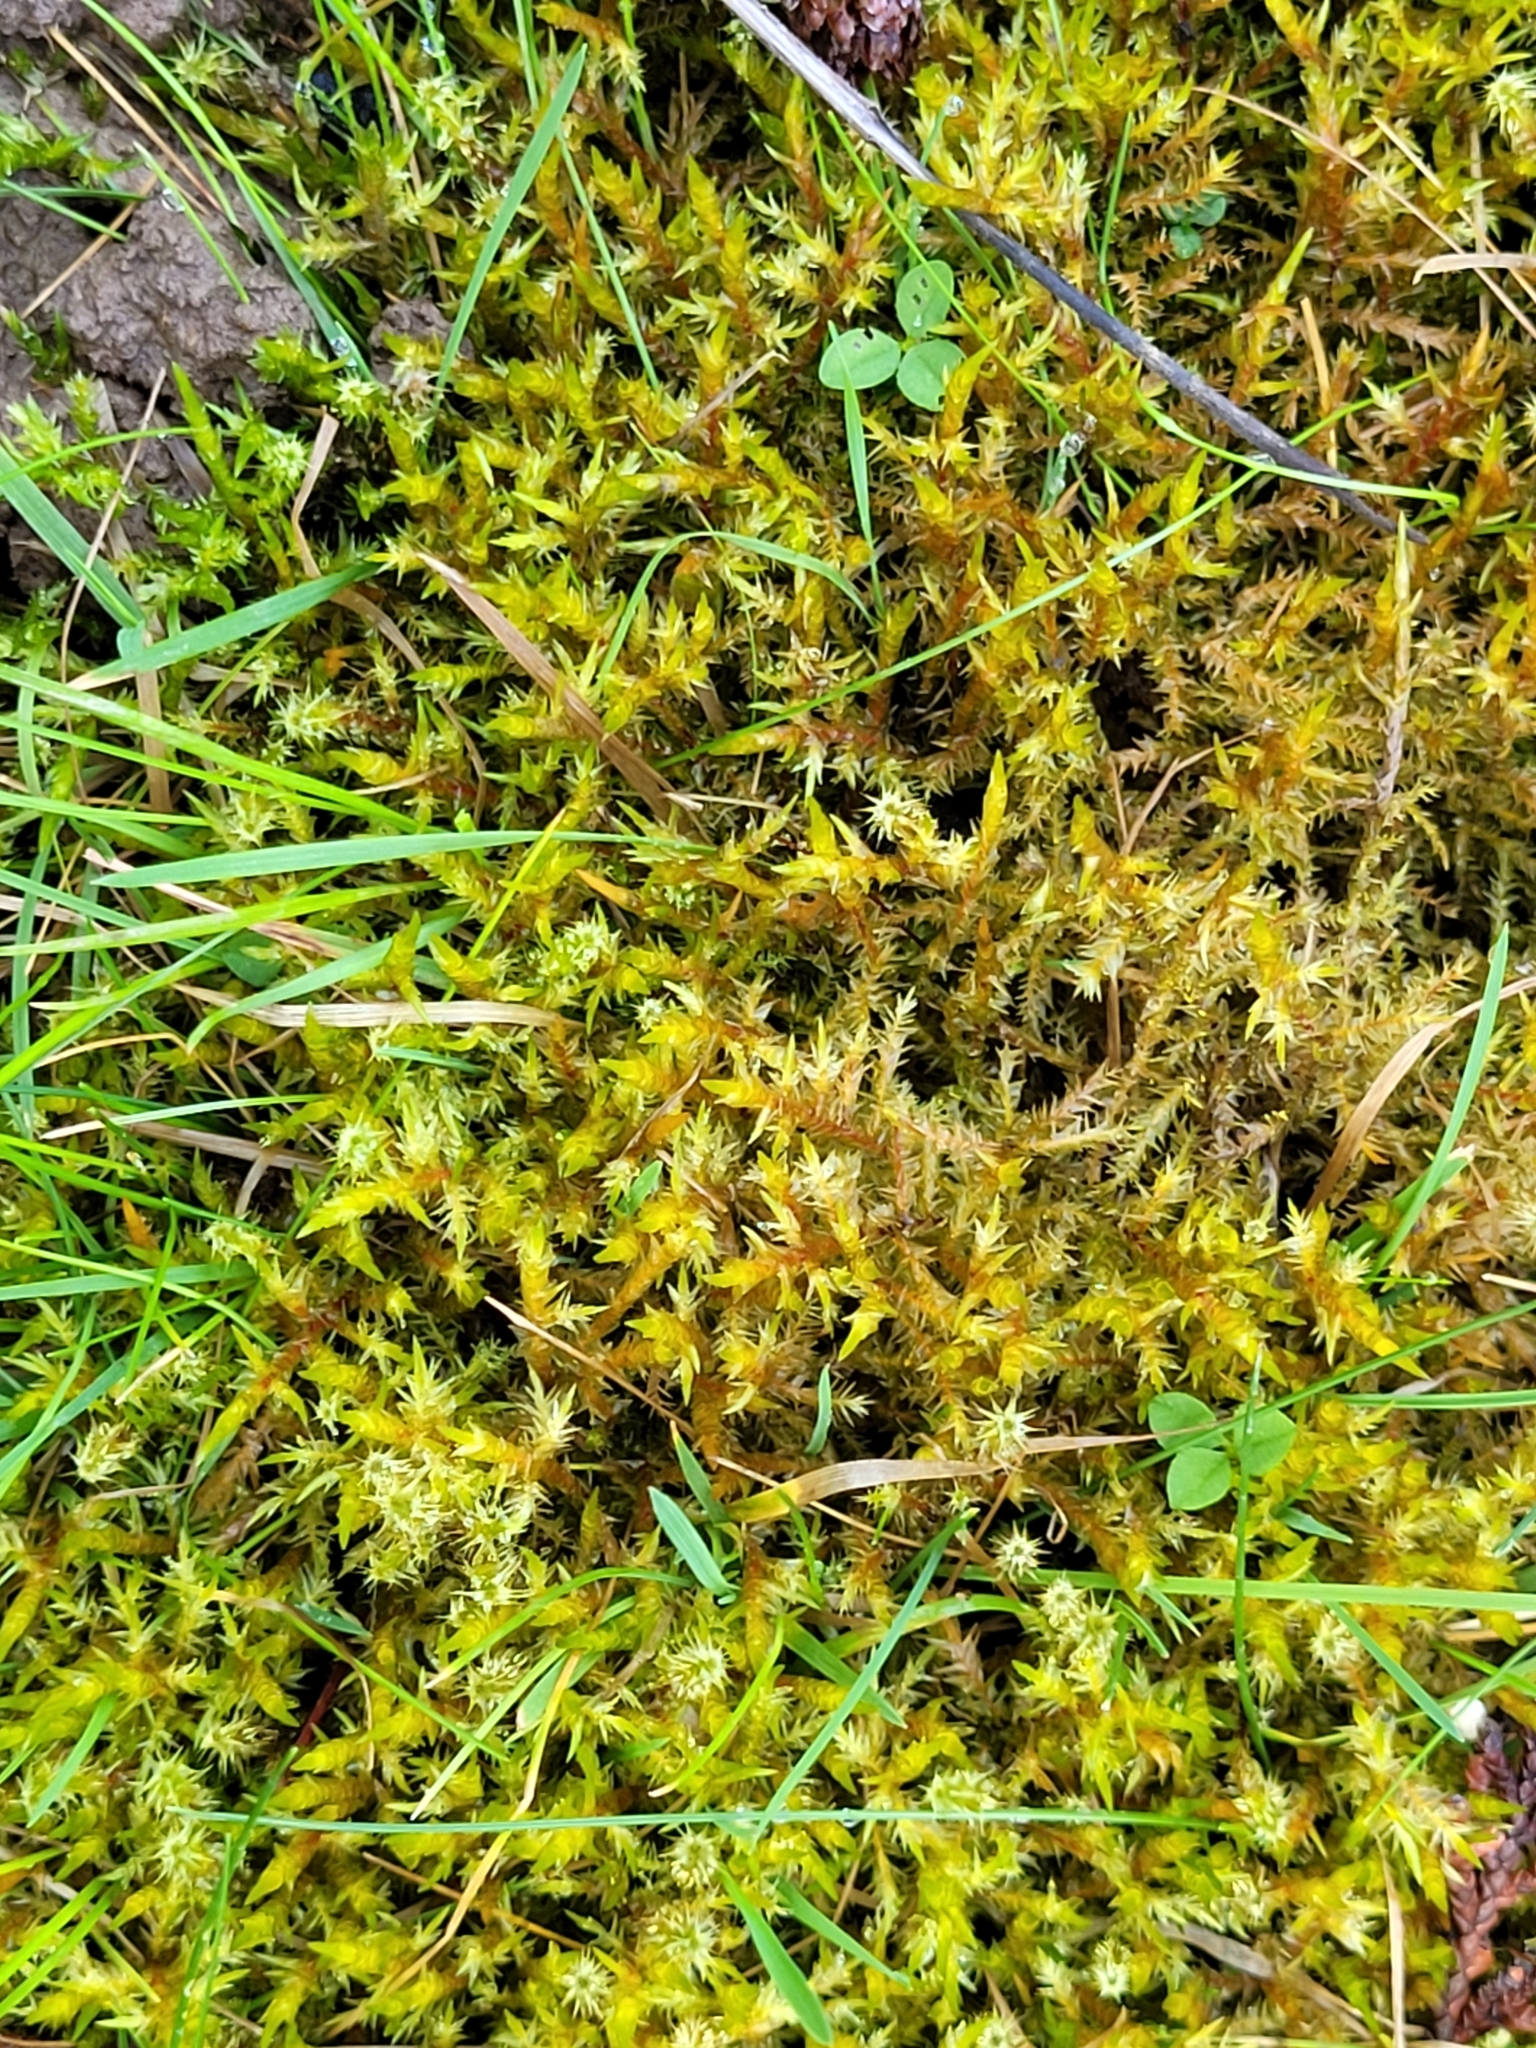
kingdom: Plantae
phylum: Bryophyta
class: Bryopsida
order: Hypnales
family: Pylaisiaceae
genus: Calliergonella
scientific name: Calliergonella cuspidata
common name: Common large wetland moss
